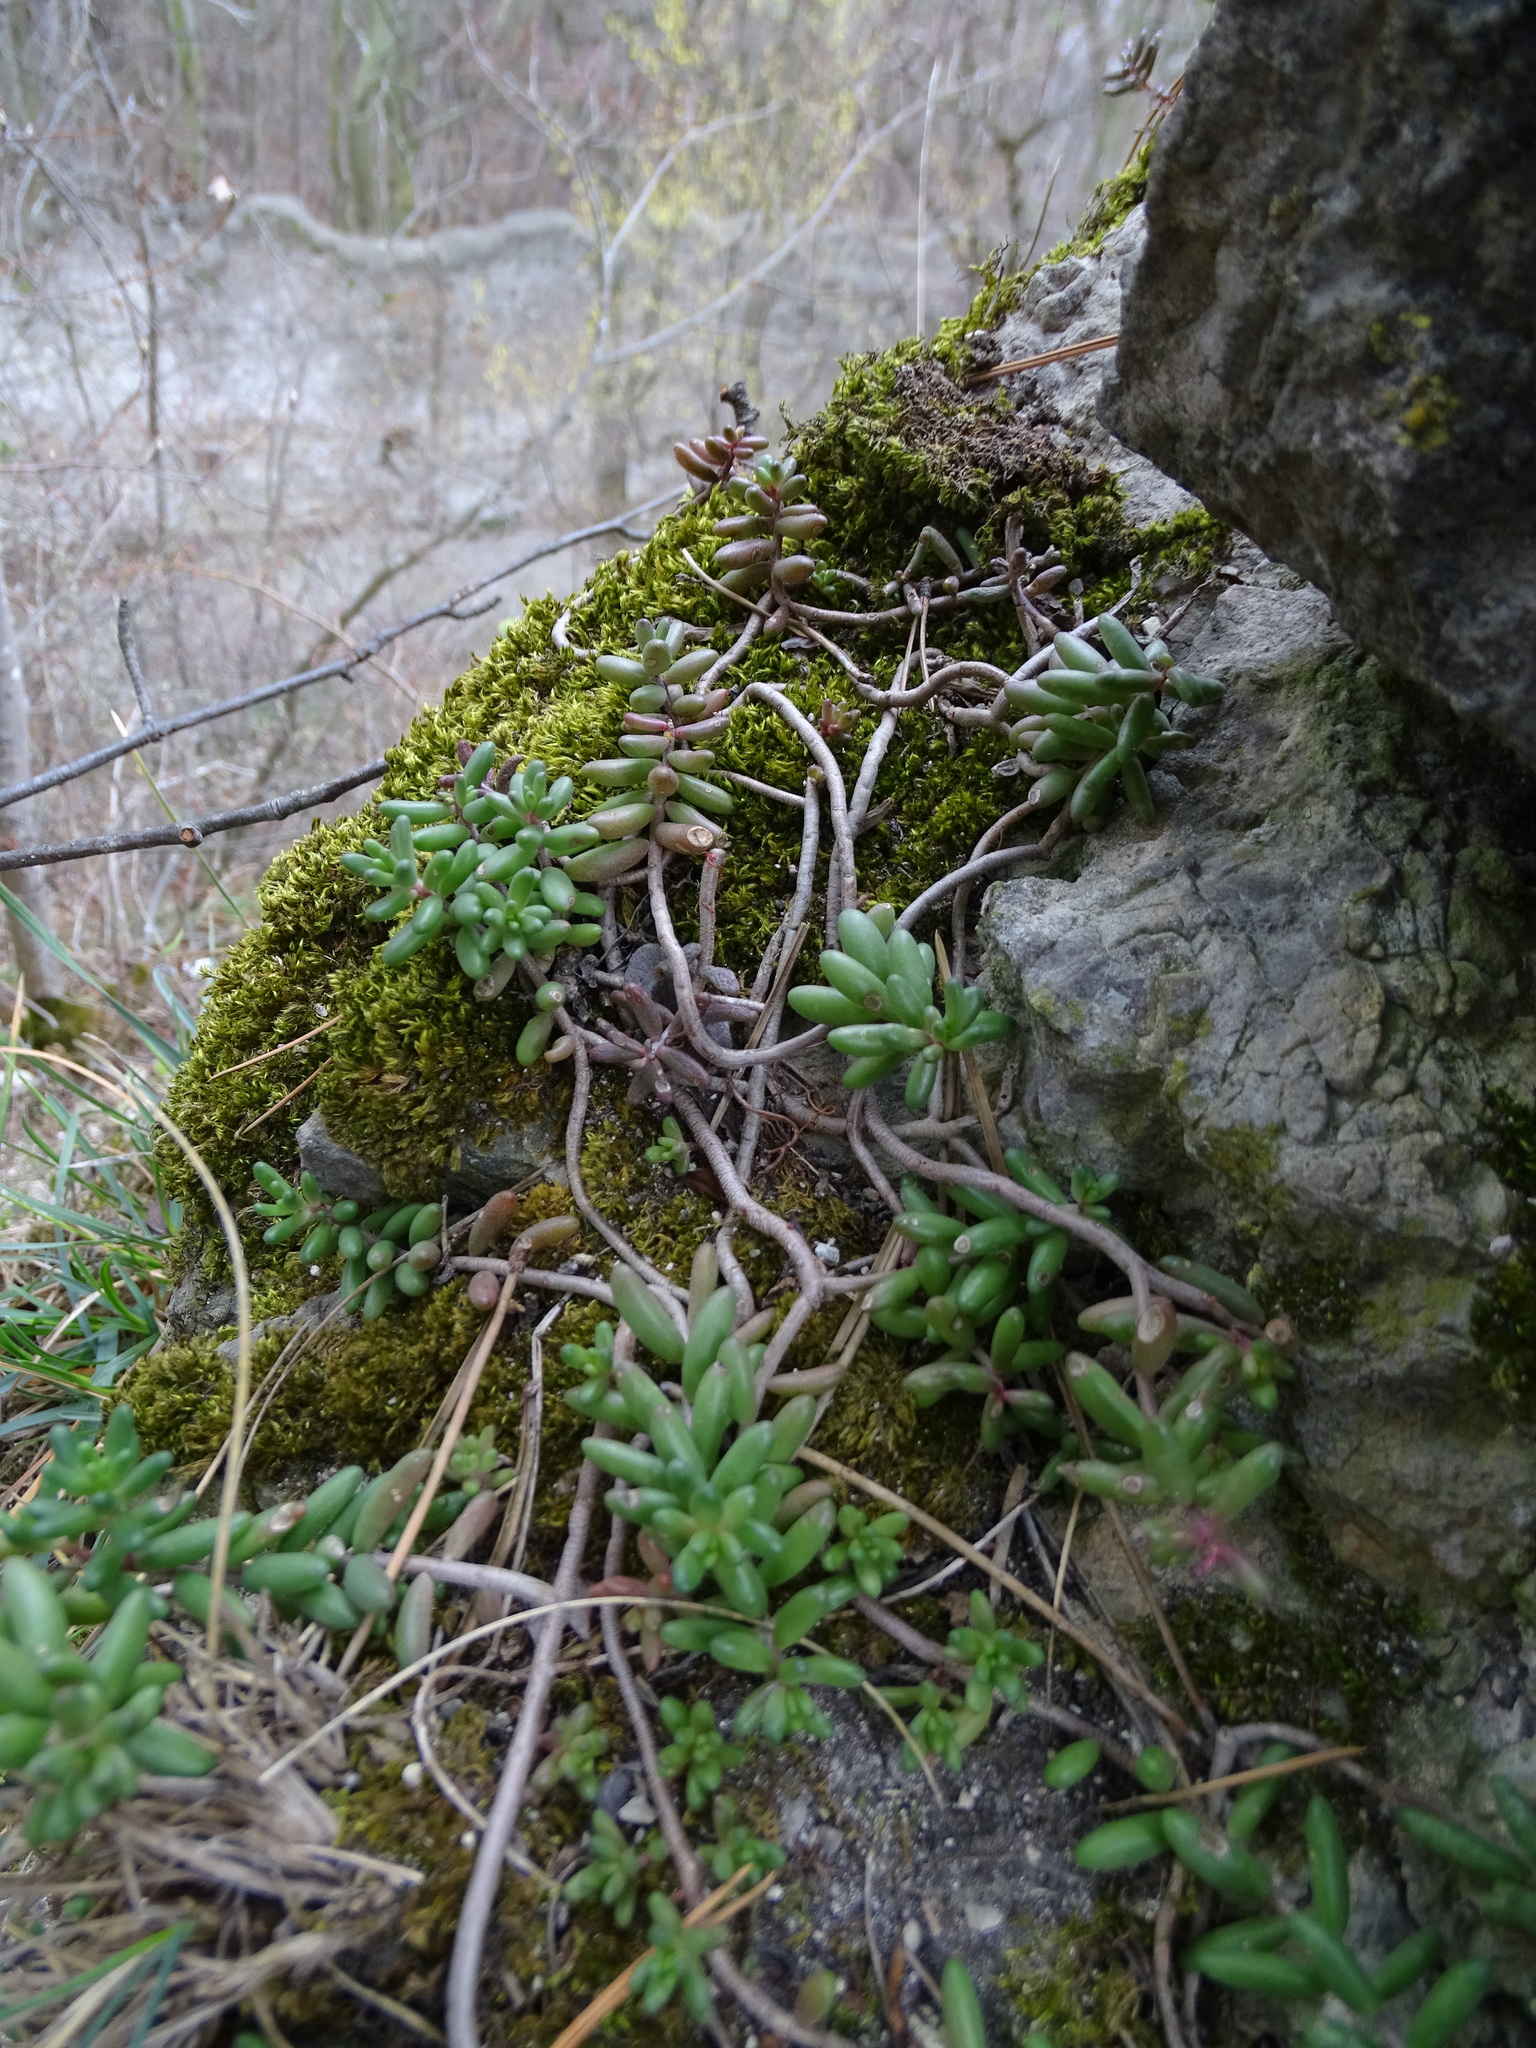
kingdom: Plantae
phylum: Tracheophyta
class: Magnoliopsida
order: Saxifragales
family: Crassulaceae
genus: Sedum
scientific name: Sedum album
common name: White stonecrop
